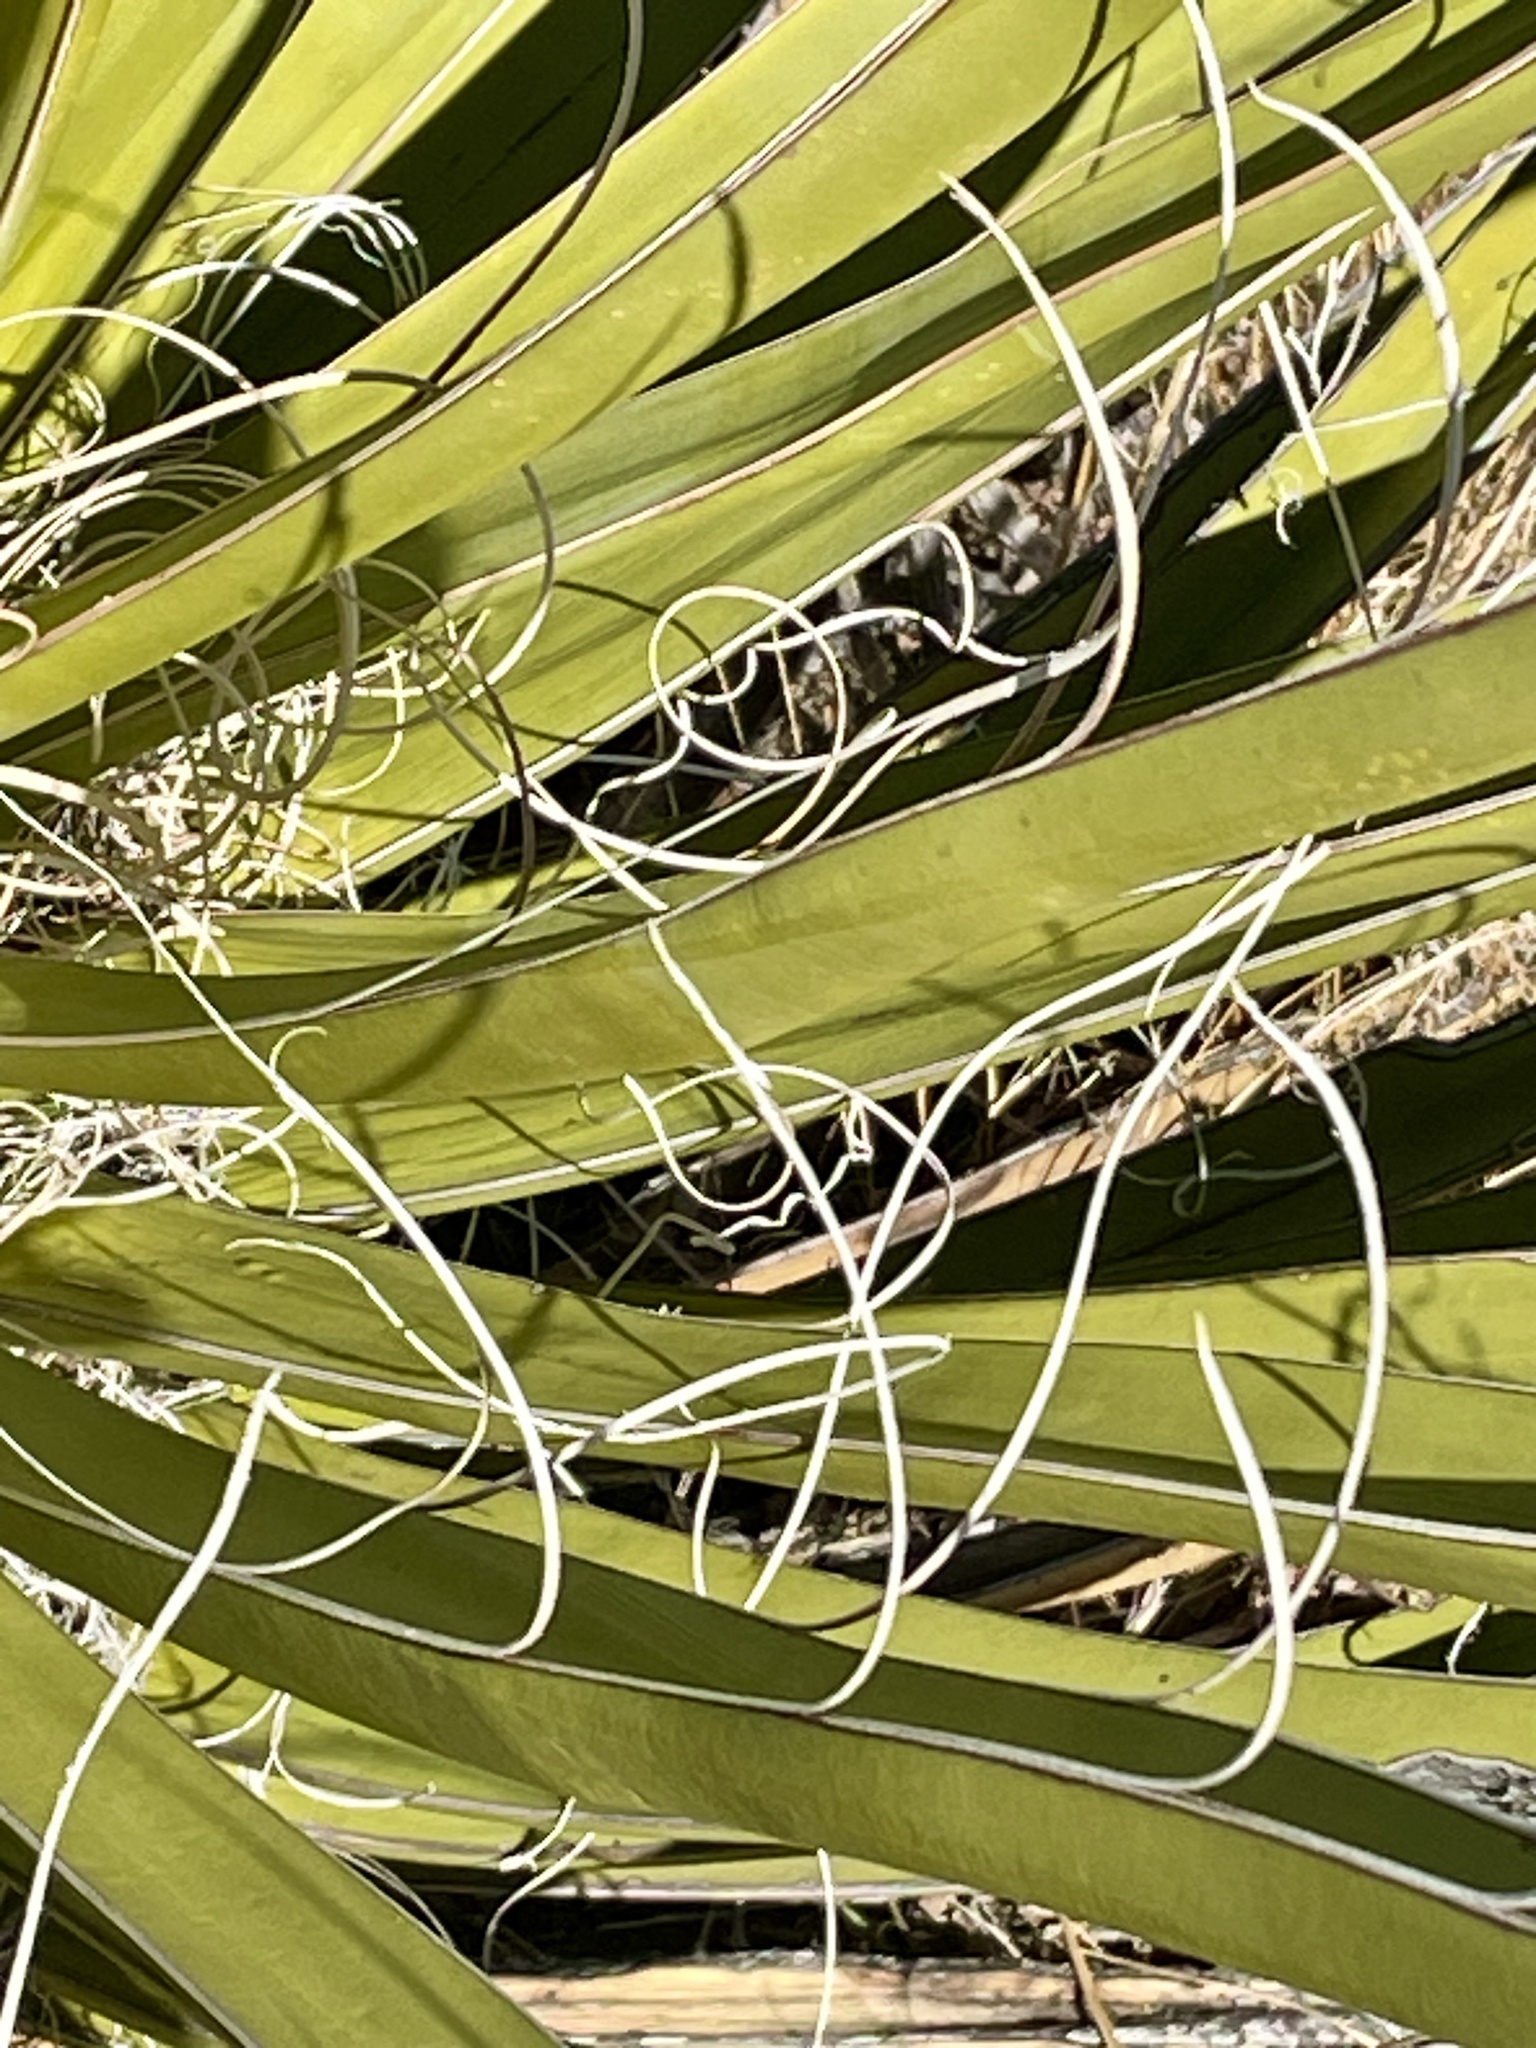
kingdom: Plantae
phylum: Tracheophyta
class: Liliopsida
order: Asparagales
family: Asparagaceae
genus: Yucca
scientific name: Yucca schidigera
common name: Mojave yucca
